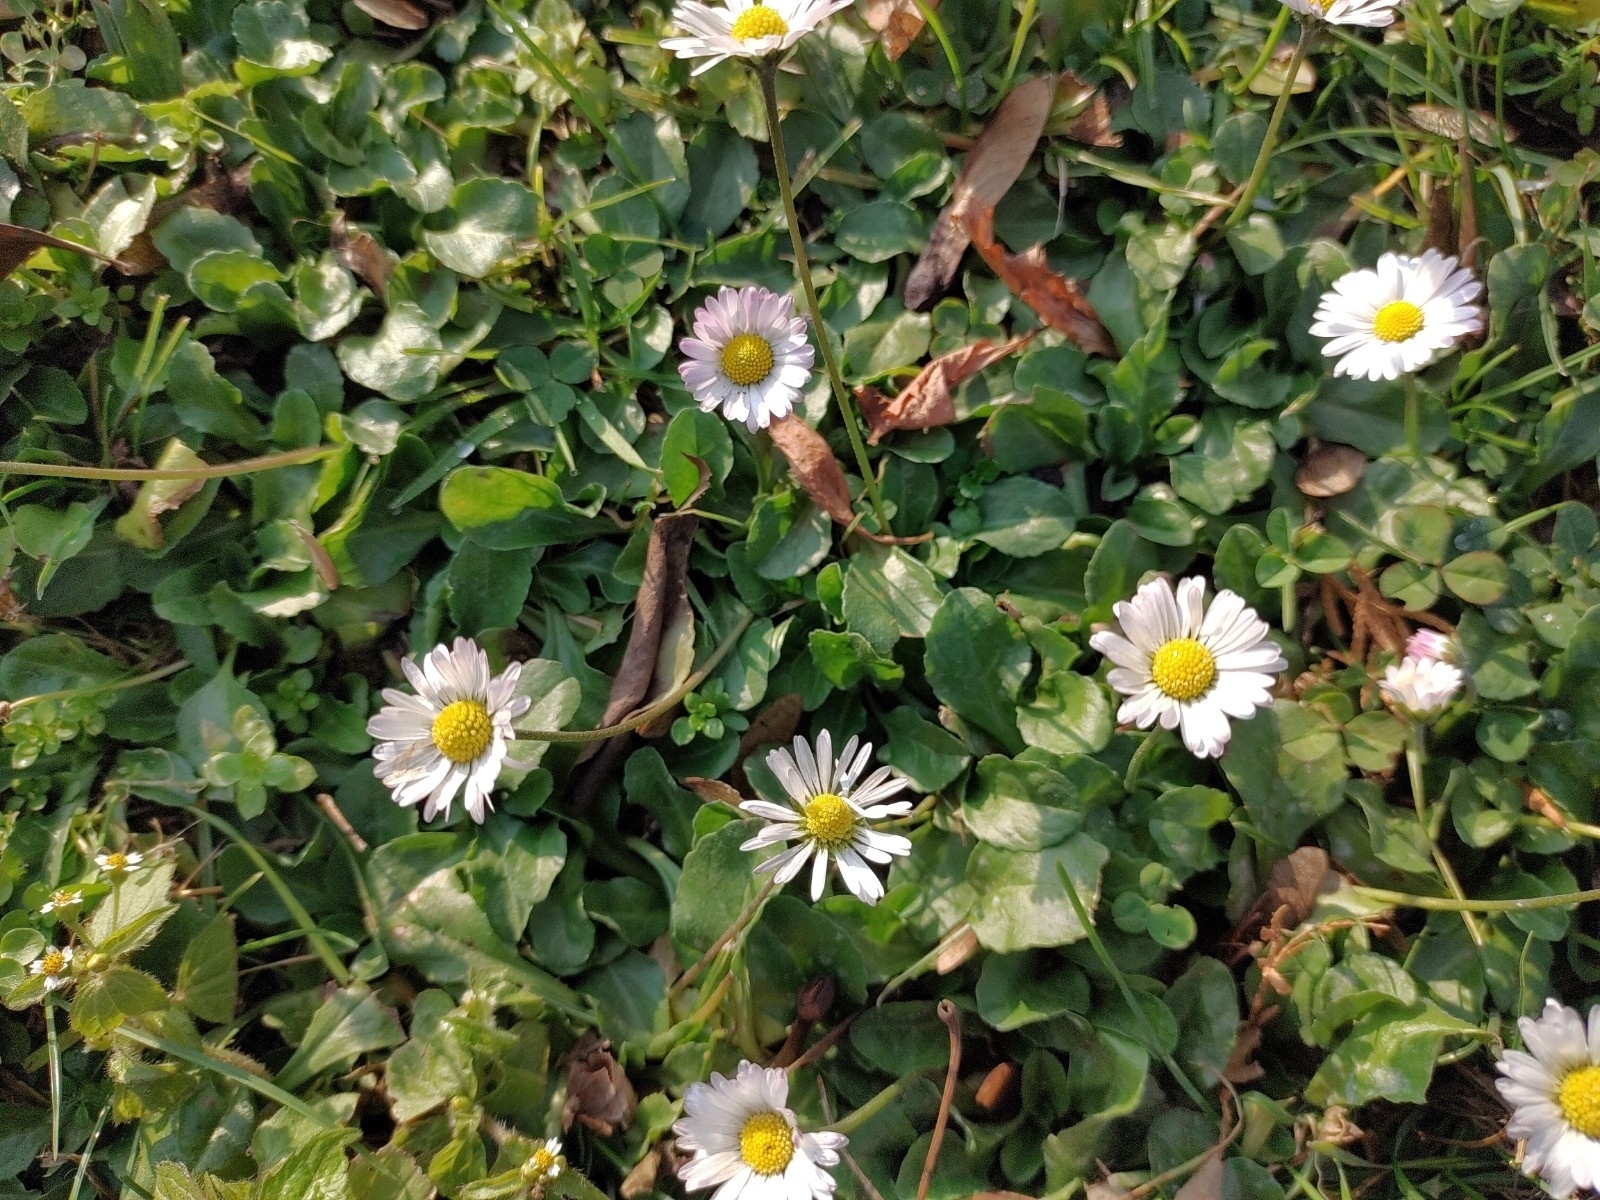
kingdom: Plantae
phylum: Tracheophyta
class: Magnoliopsida
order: Asterales
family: Asteraceae
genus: Bellis
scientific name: Bellis perennis
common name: Lawndaisy
